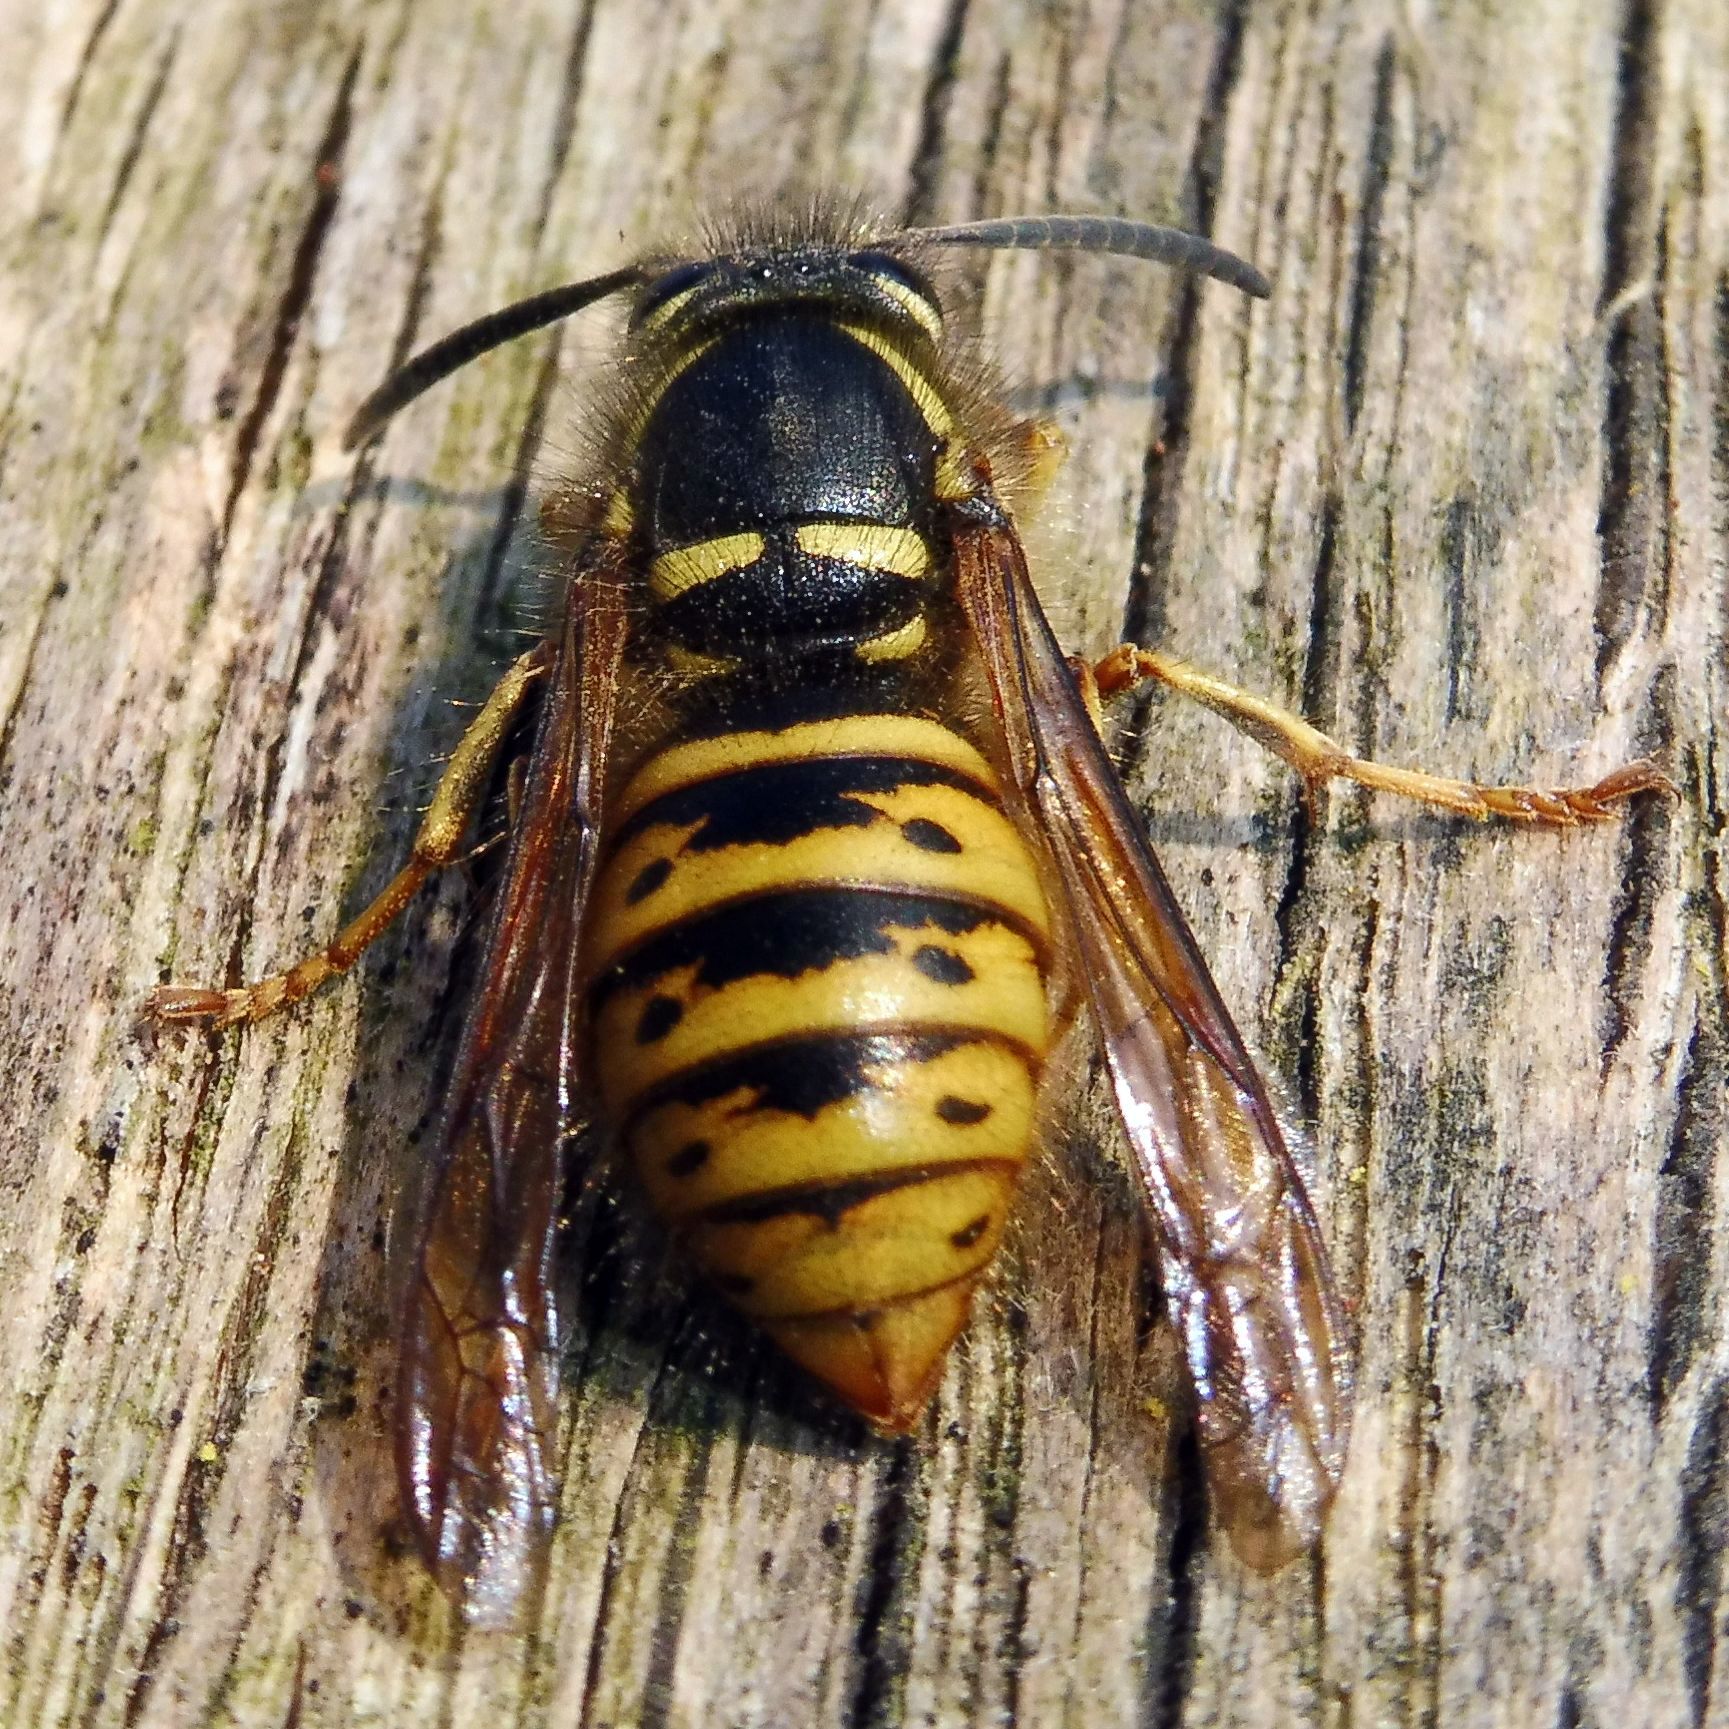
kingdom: Animalia
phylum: Arthropoda
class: Insecta
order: Hymenoptera
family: Vespidae
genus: Dolichovespula
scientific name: Dolichovespula saxonica
